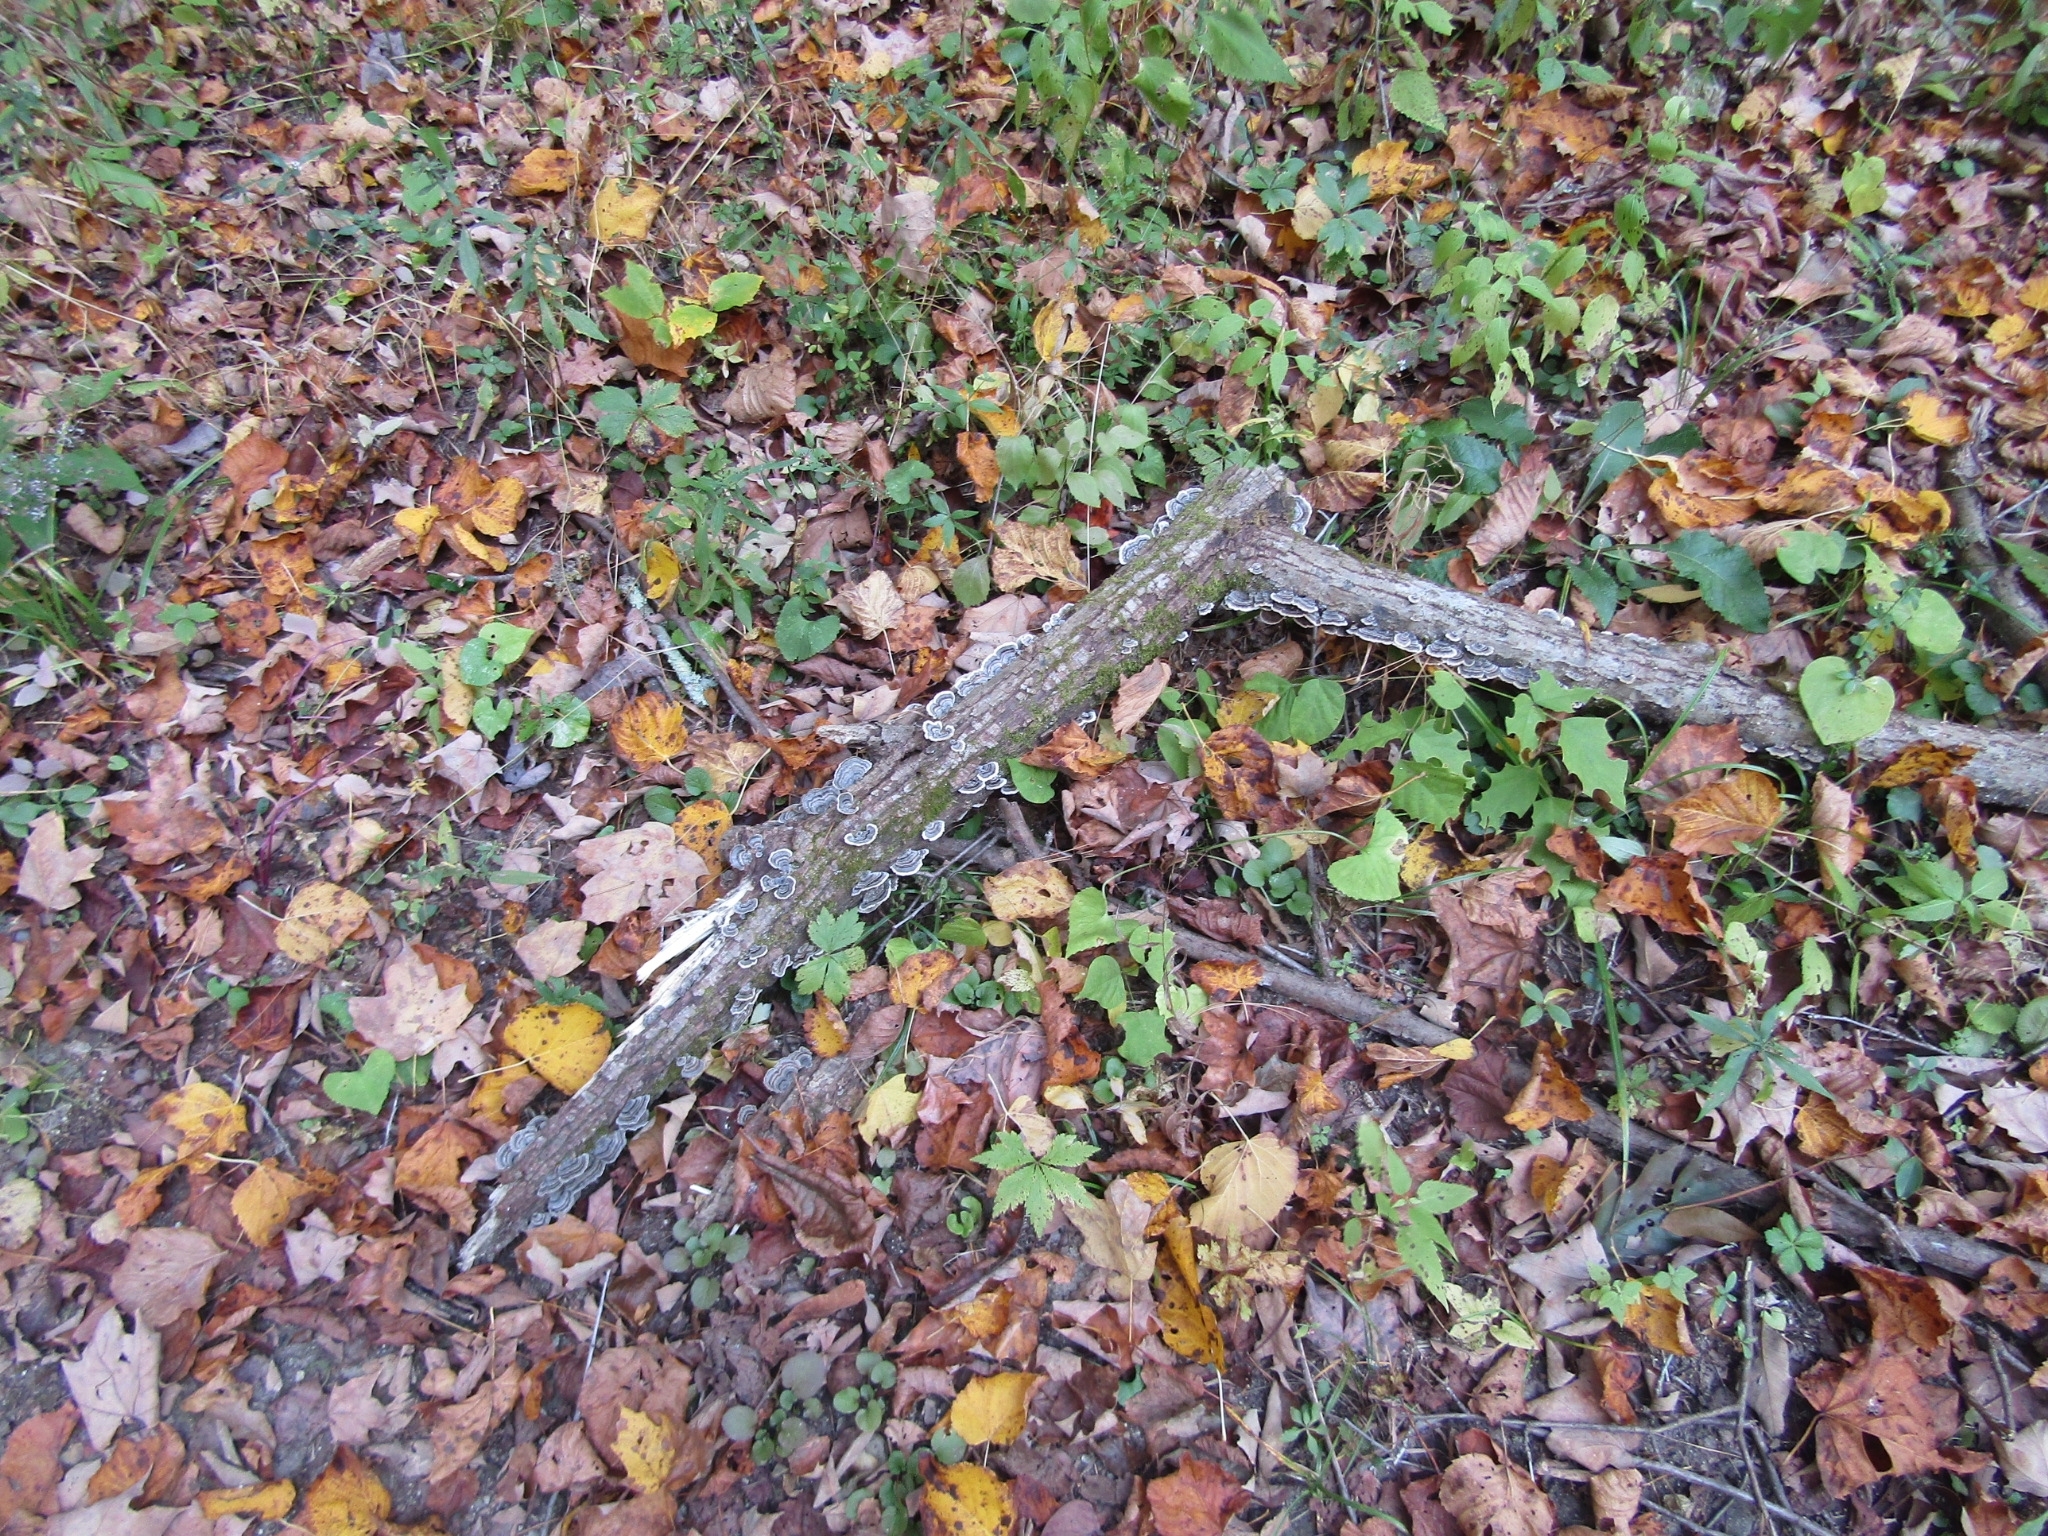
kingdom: Fungi
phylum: Basidiomycota
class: Agaricomycetes
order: Polyporales
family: Polyporaceae
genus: Trametes
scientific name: Trametes versicolor
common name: Turkeytail
